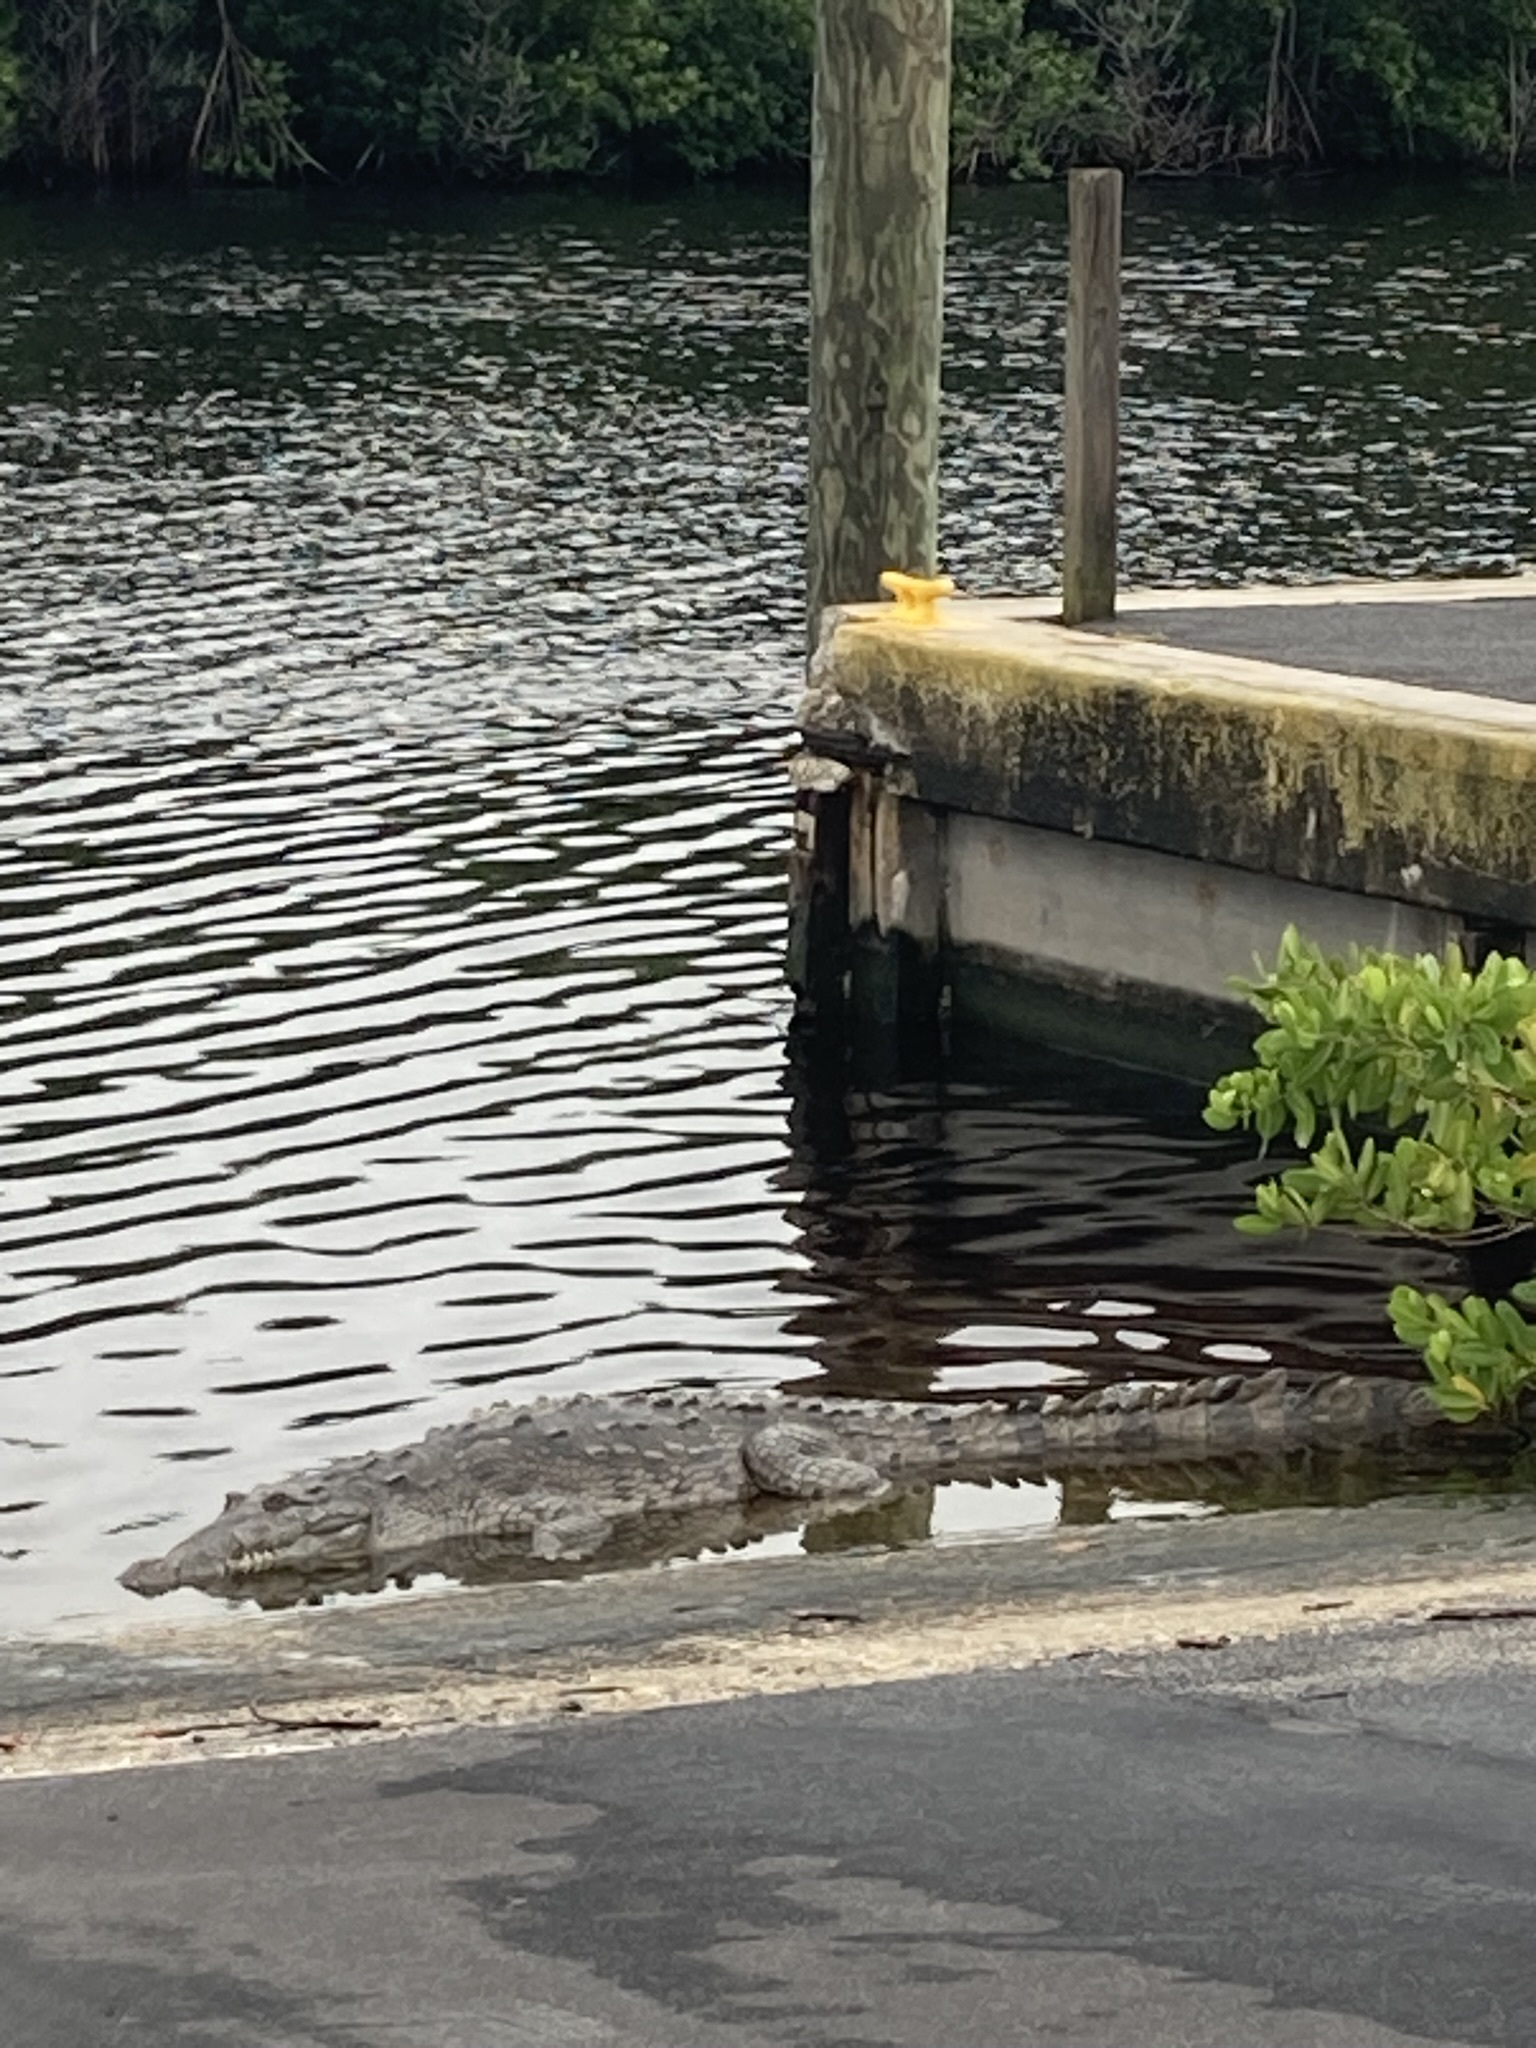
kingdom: Animalia
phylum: Chordata
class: Crocodylia
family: Crocodylidae
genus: Crocodylus
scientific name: Crocodylus acutus
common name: American crocodile
